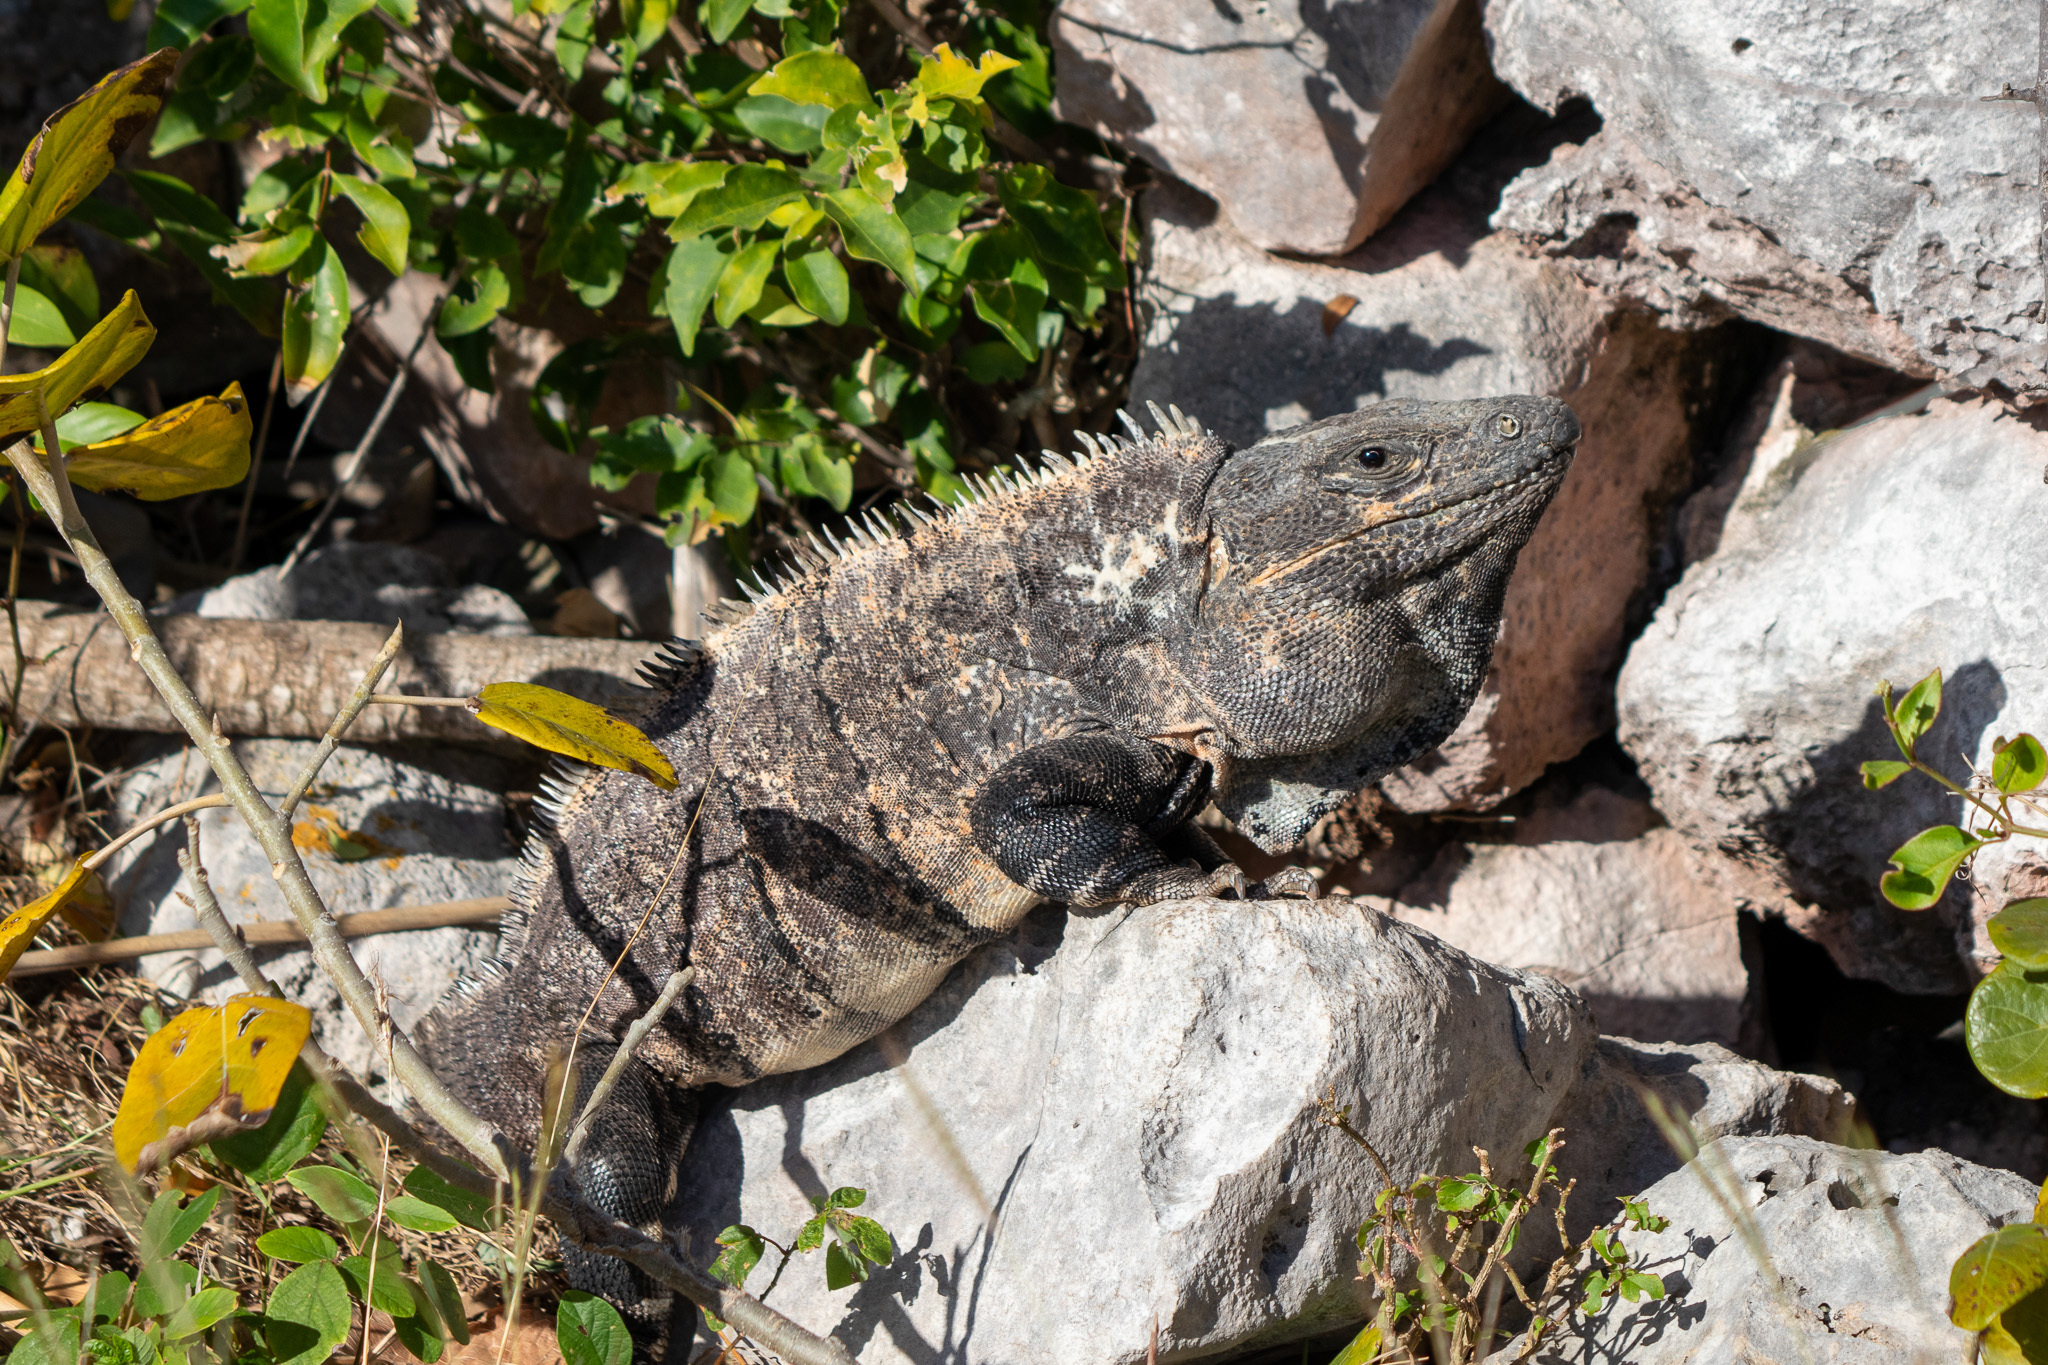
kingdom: Animalia
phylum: Chordata
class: Squamata
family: Iguanidae
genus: Ctenosaura
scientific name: Ctenosaura similis
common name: Black spiny-tailed iguana
